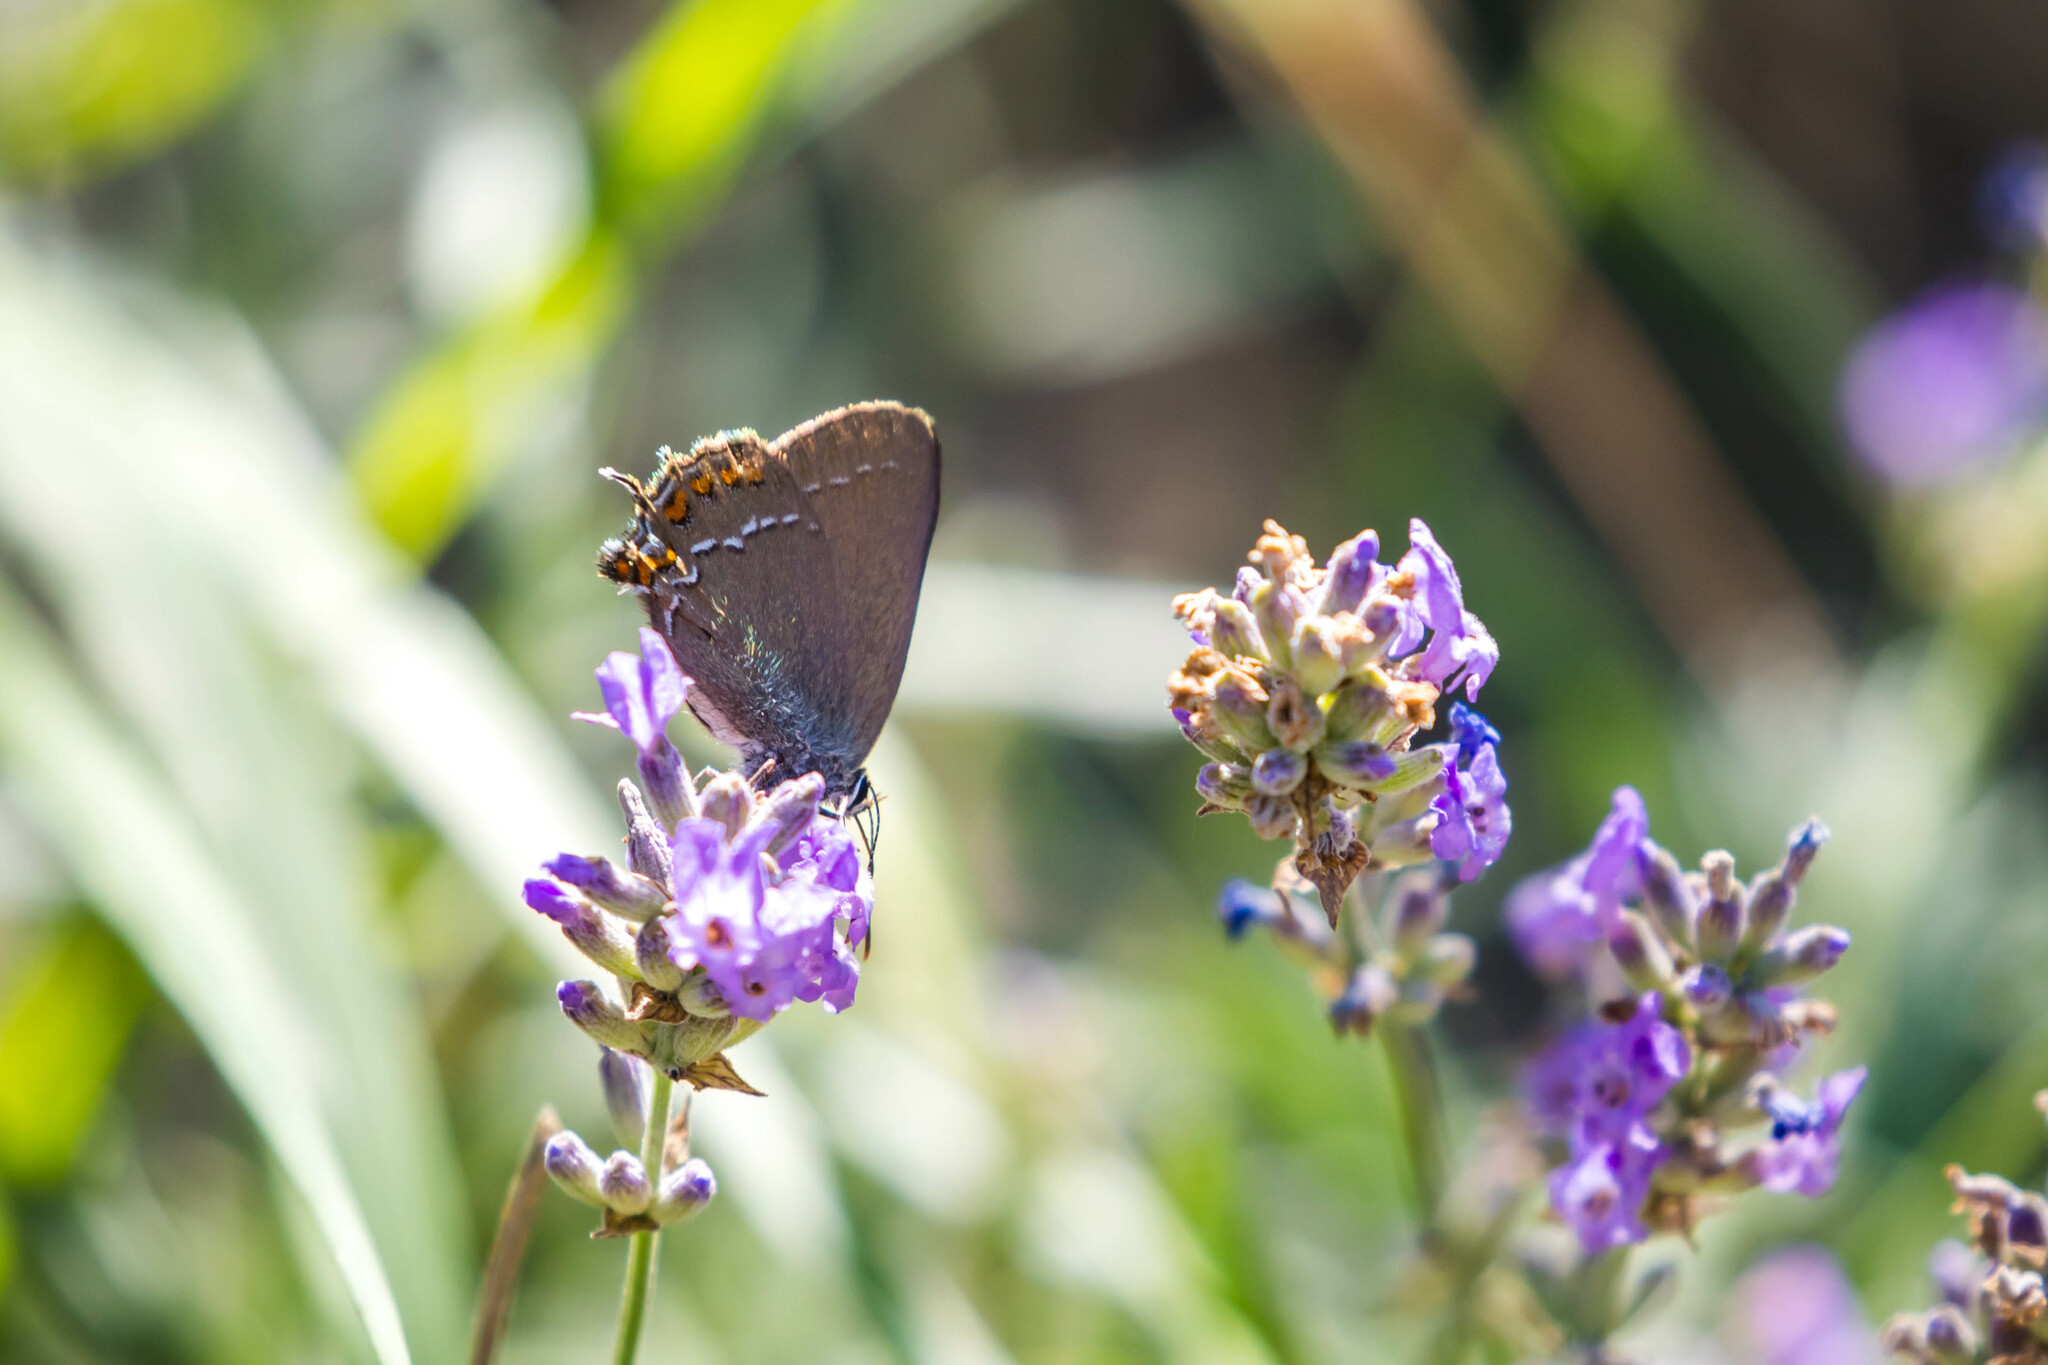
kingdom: Animalia
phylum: Arthropoda
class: Insecta
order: Lepidoptera
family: Lycaenidae
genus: Nordmannia
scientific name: Nordmannia ilicis
